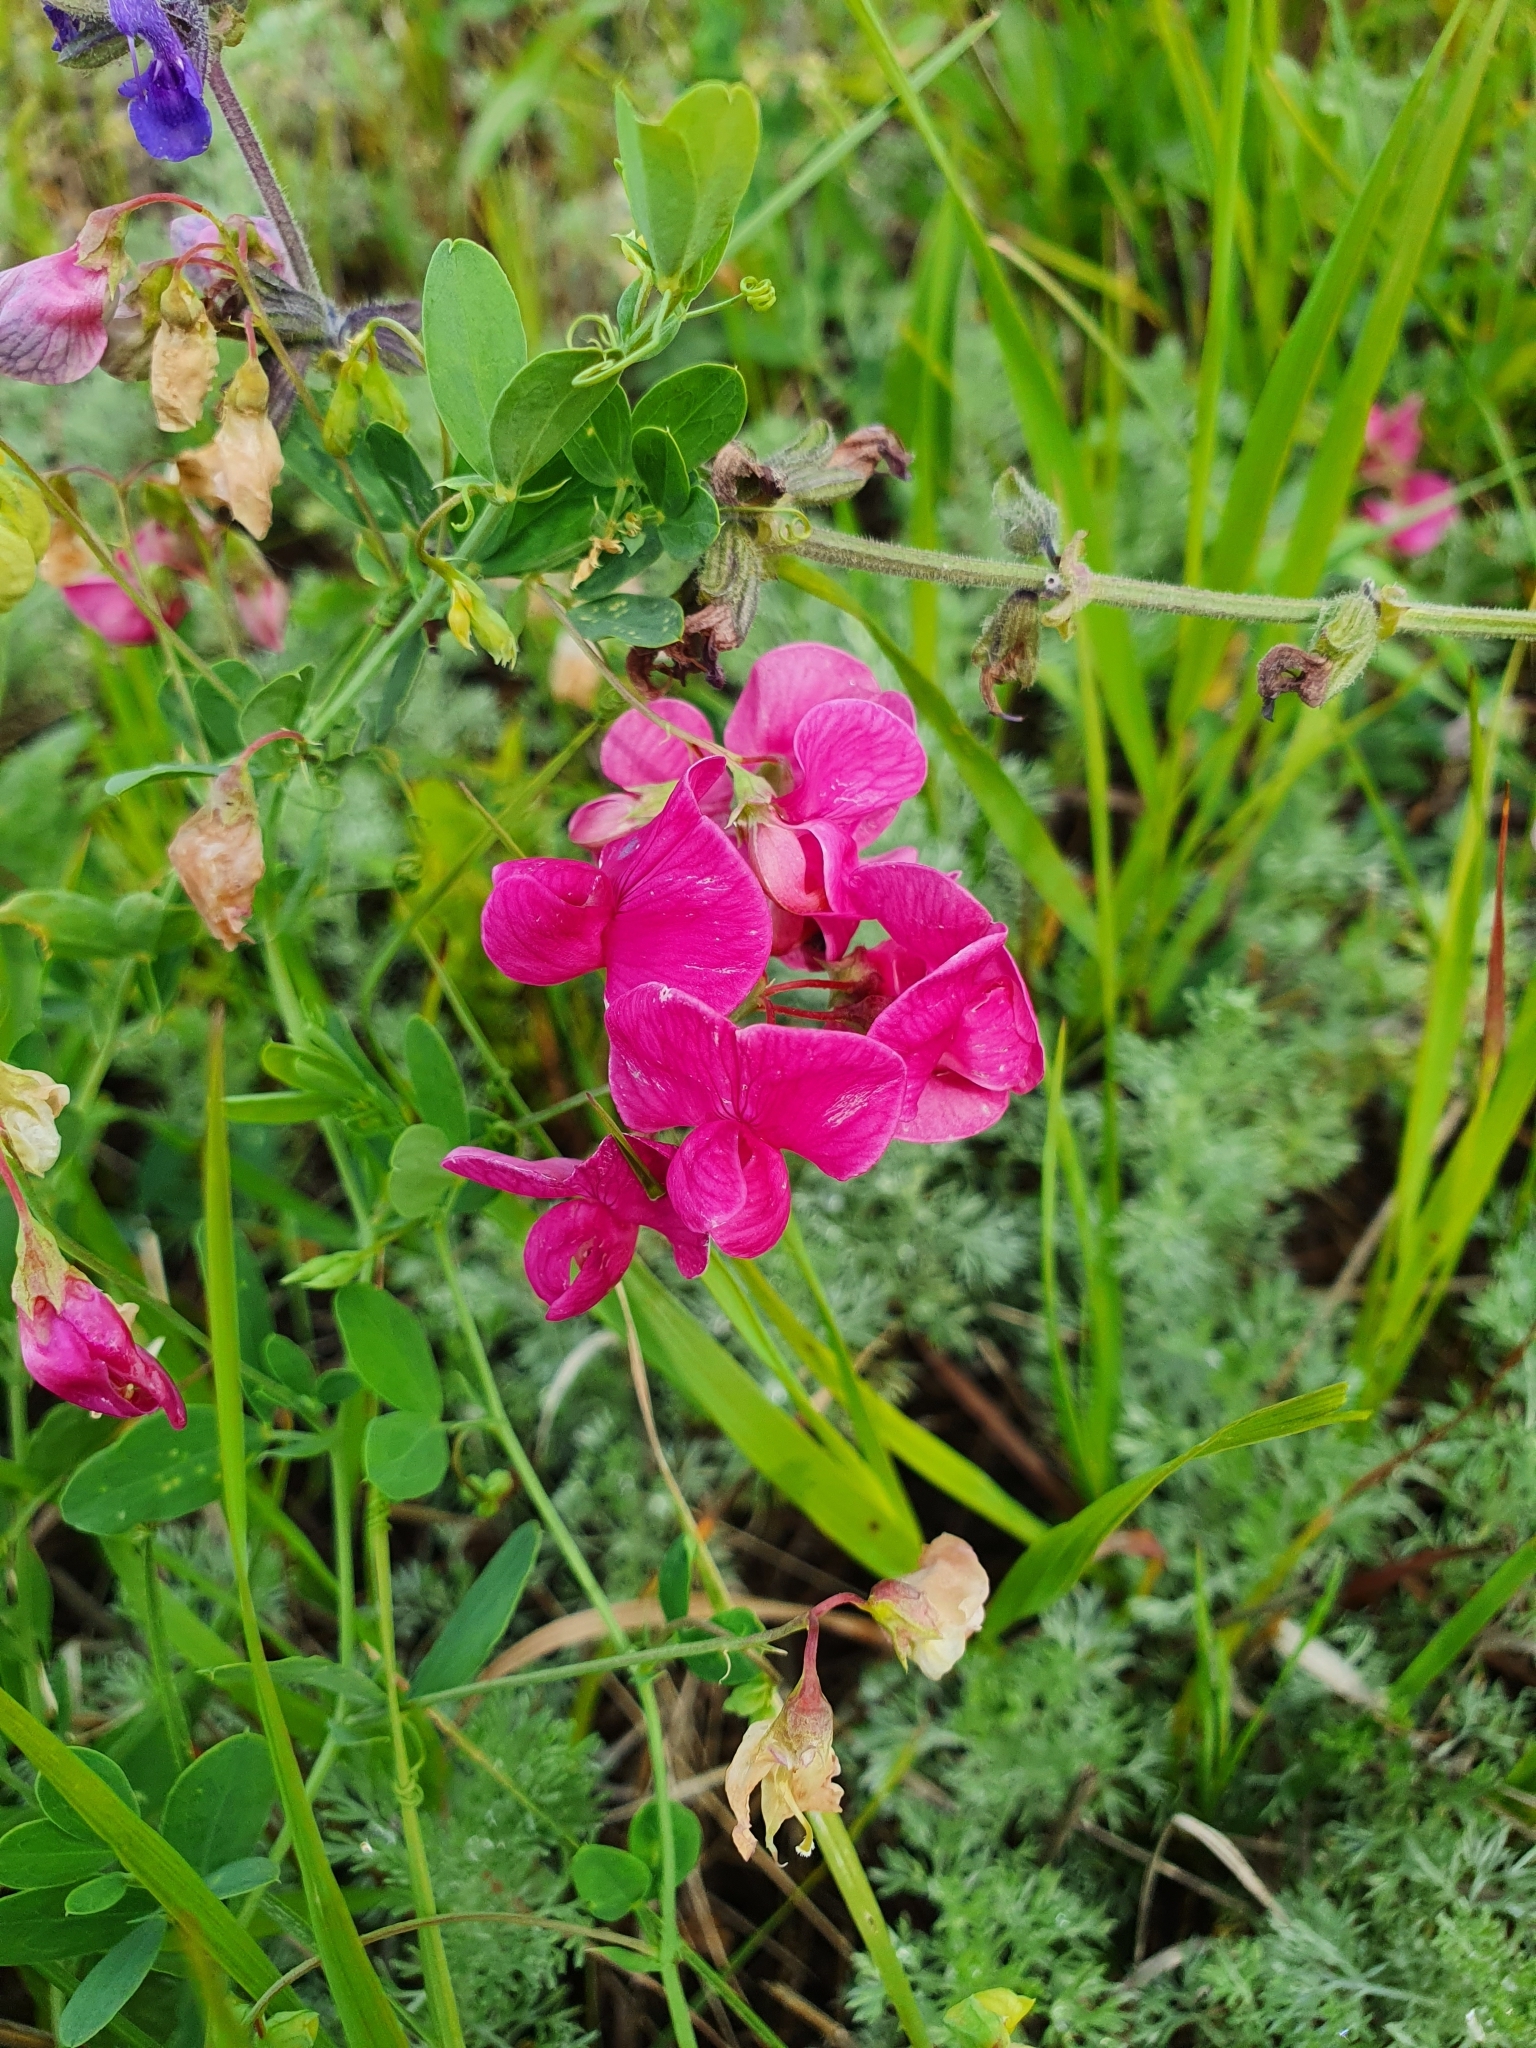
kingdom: Plantae
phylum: Tracheophyta
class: Magnoliopsida
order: Fabales
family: Fabaceae
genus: Lathyrus
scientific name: Lathyrus tuberosus
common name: Tuberous pea
